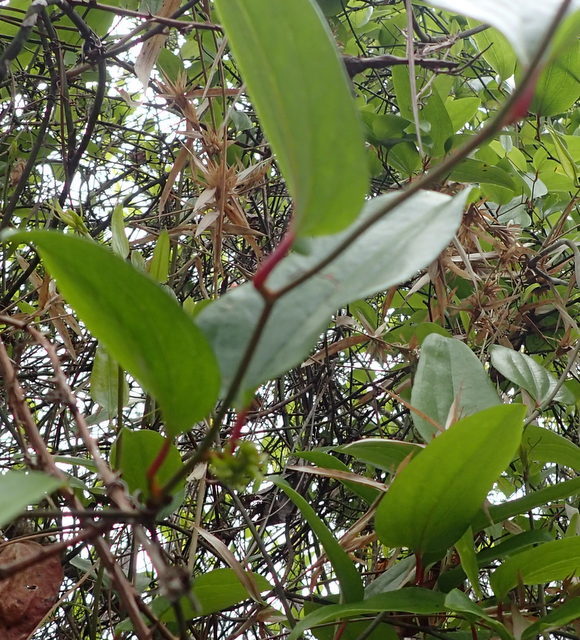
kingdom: Plantae
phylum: Tracheophyta
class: Liliopsida
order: Liliales
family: Smilacaceae
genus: Smilax
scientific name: Smilax walteri
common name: Coral greenbrier
